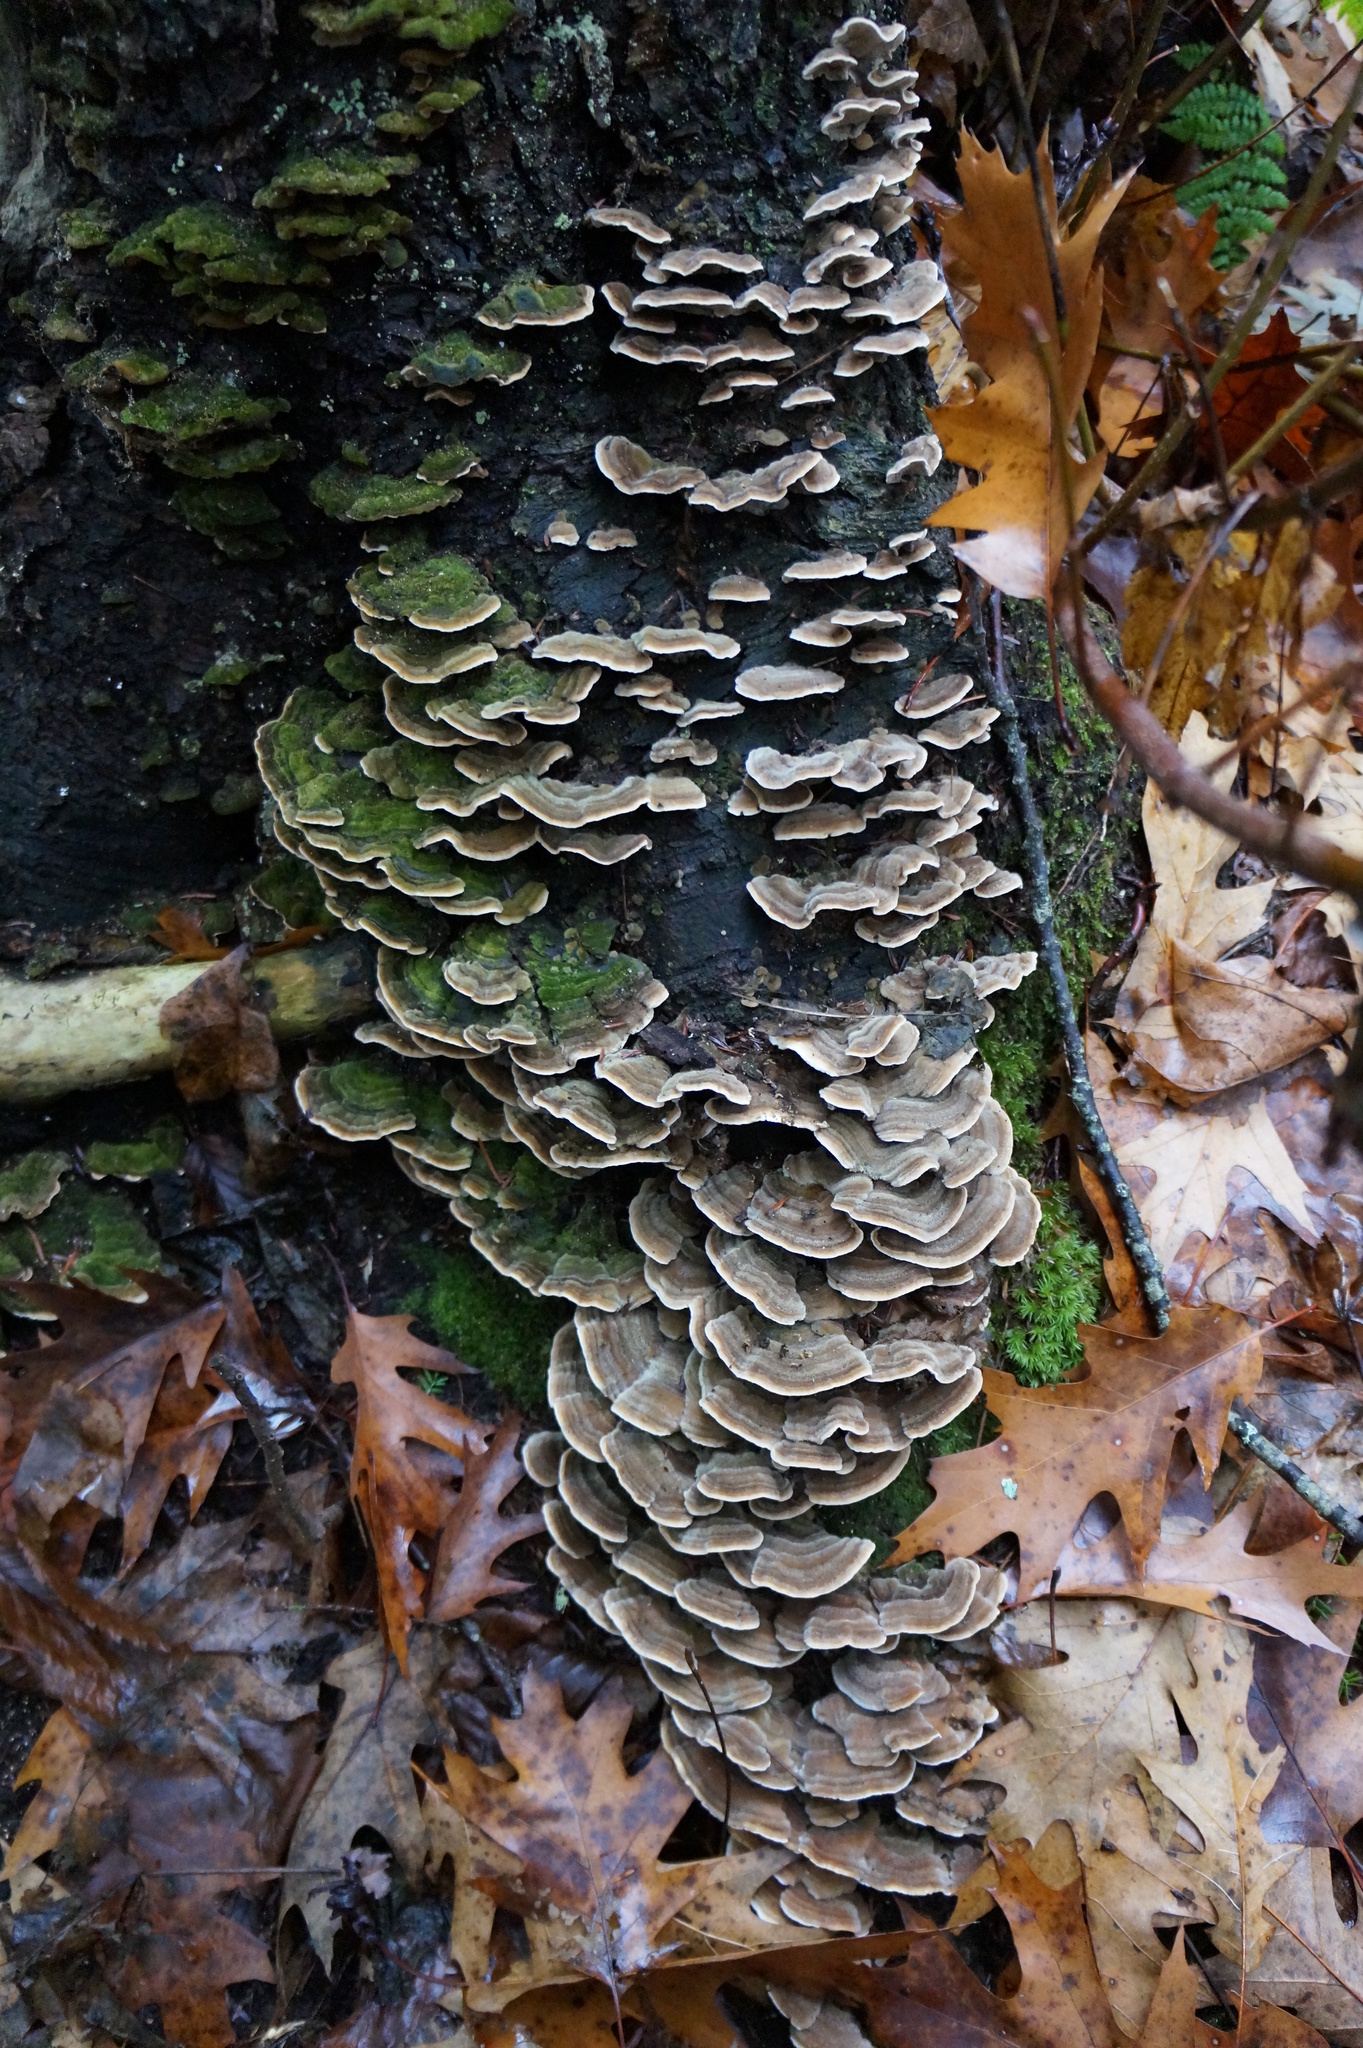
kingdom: Fungi
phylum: Basidiomycota
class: Agaricomycetes
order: Polyporales
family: Cerrenaceae
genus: Cerrena
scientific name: Cerrena unicolor
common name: Mossy maze polypore
